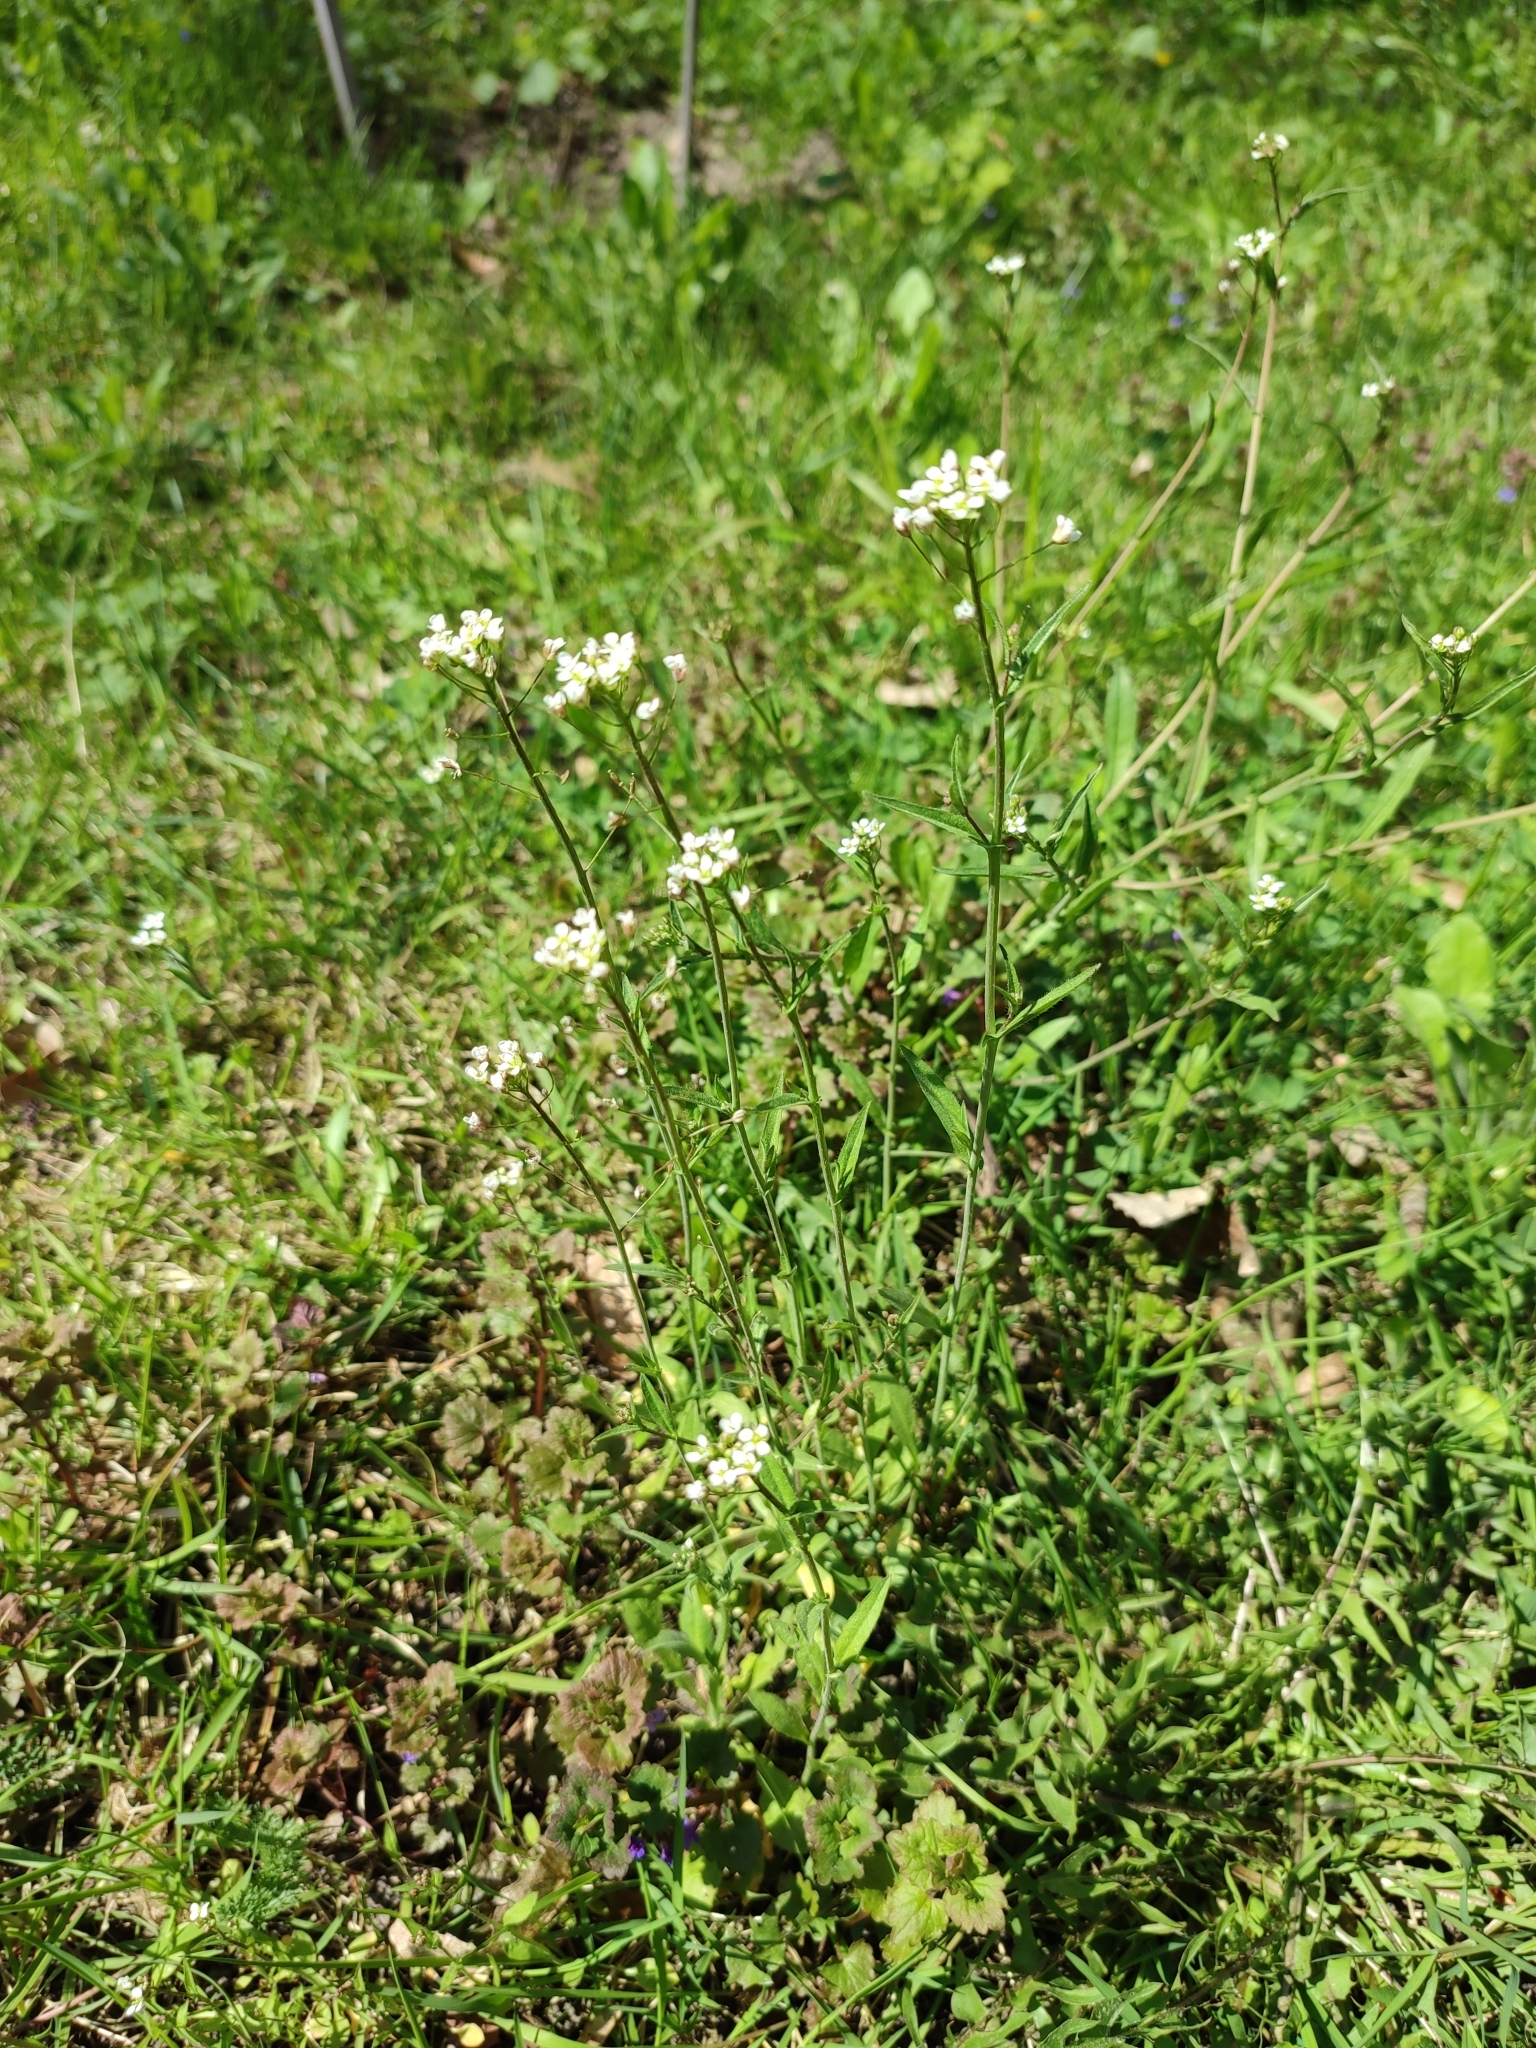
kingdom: Plantae
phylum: Tracheophyta
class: Magnoliopsida
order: Brassicales
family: Brassicaceae
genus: Capsella
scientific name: Capsella bursa-pastoris
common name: Shepherd's purse
